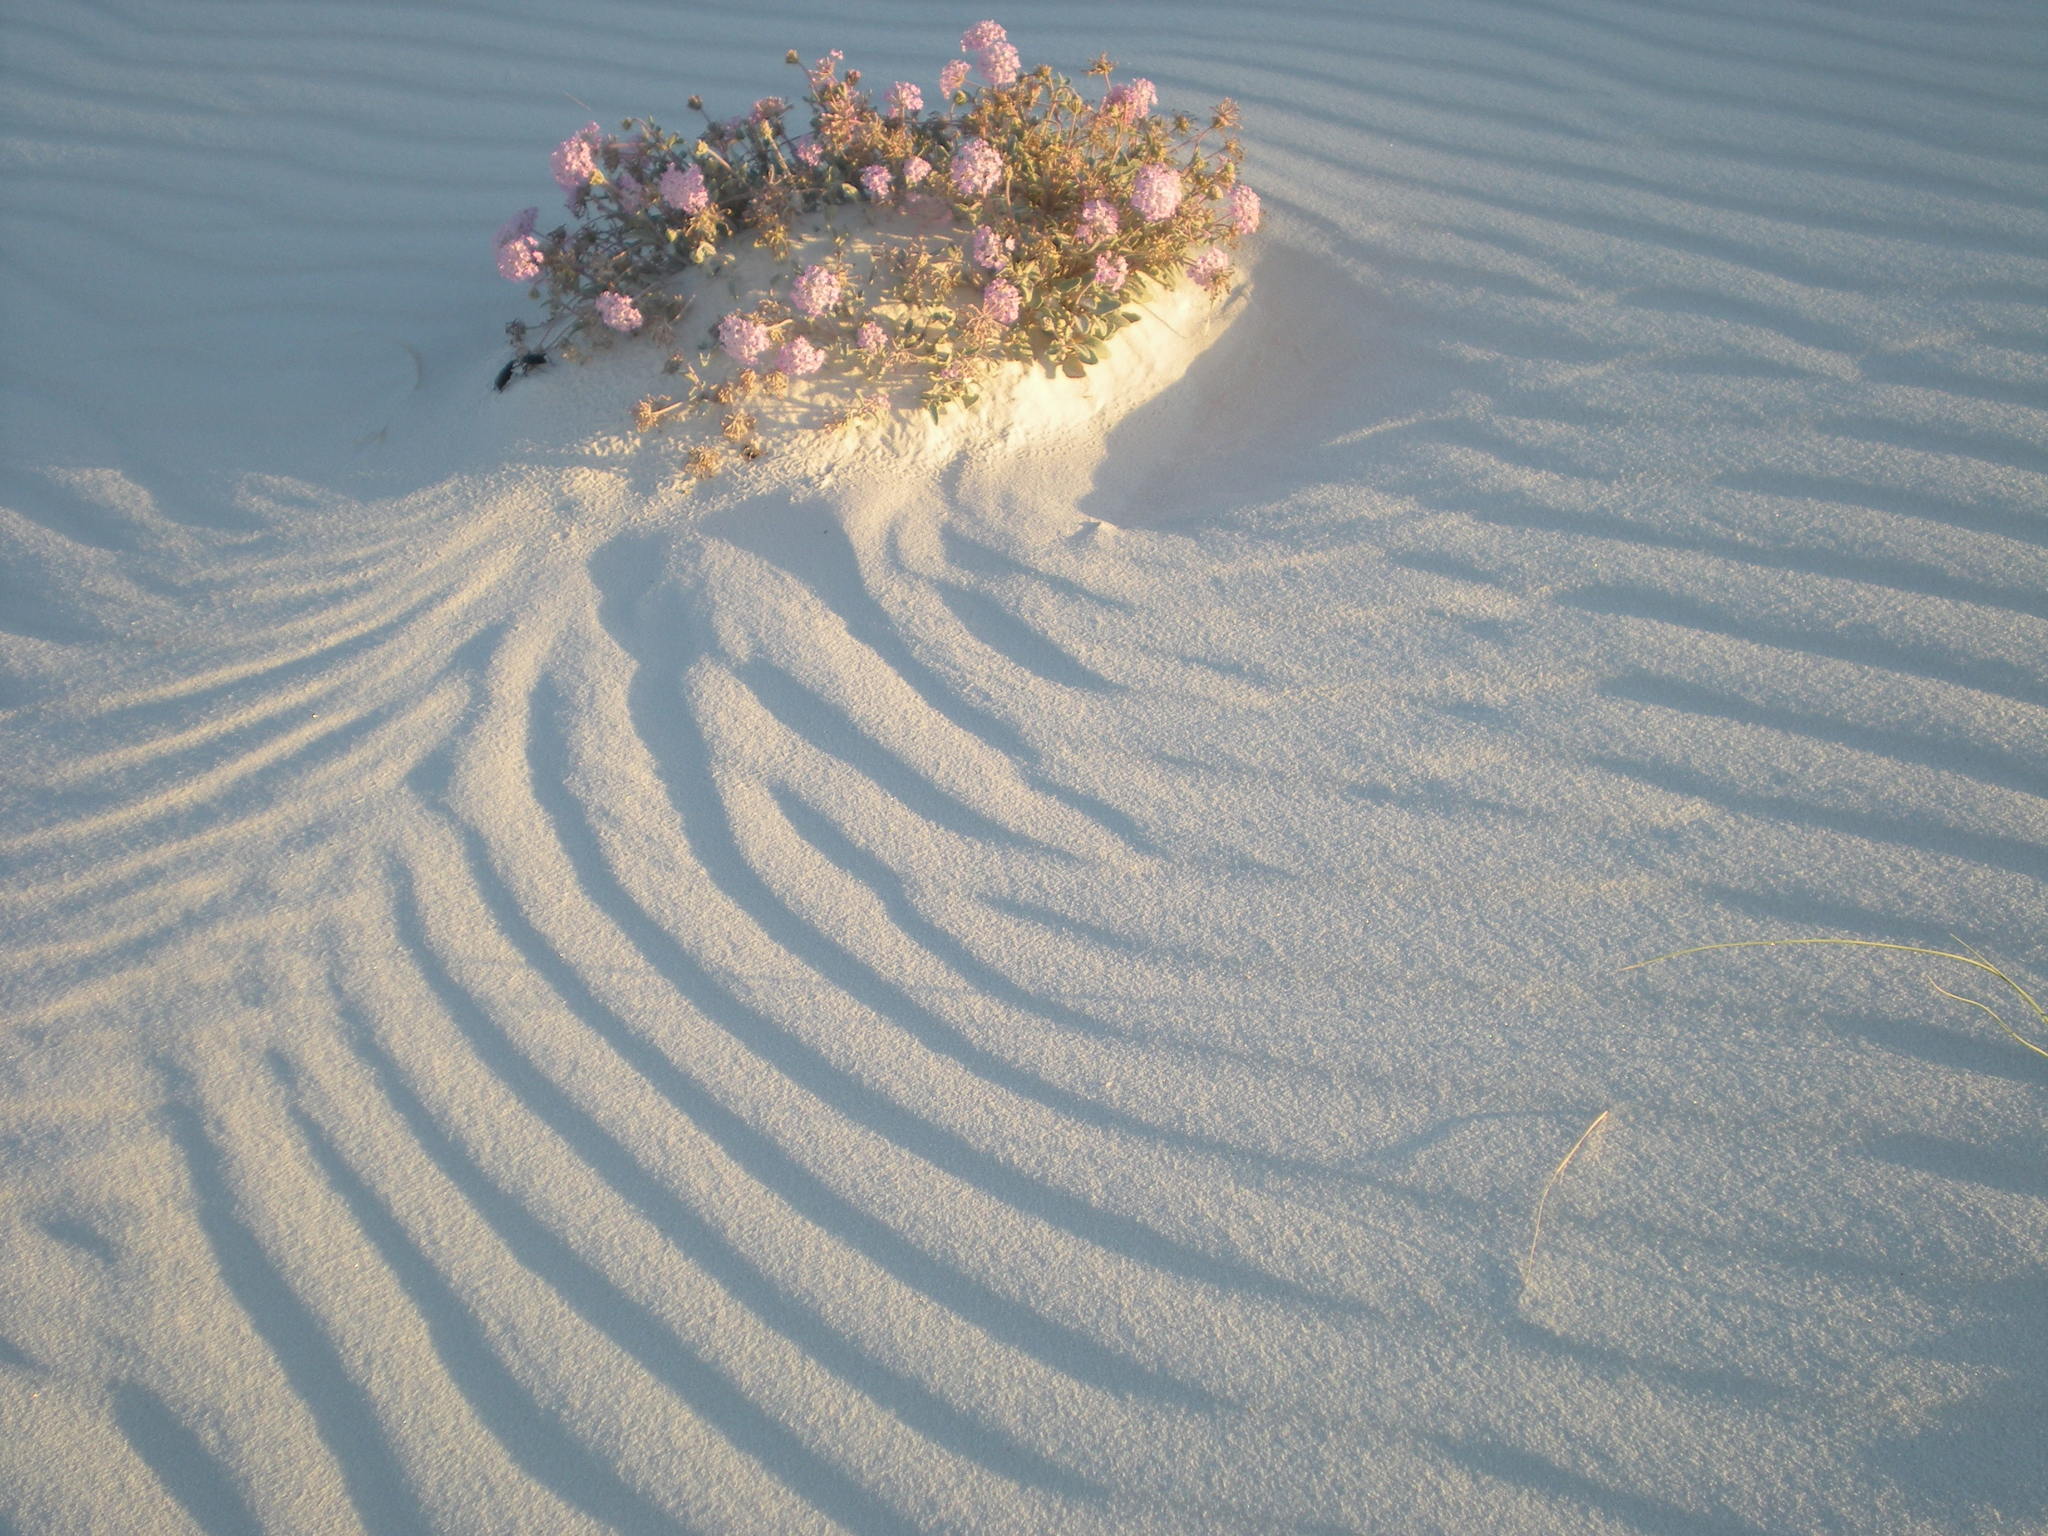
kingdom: Plantae
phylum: Tracheophyta
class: Magnoliopsida
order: Caryophyllales
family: Nyctaginaceae
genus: Abronia
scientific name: Abronia angustifolia
